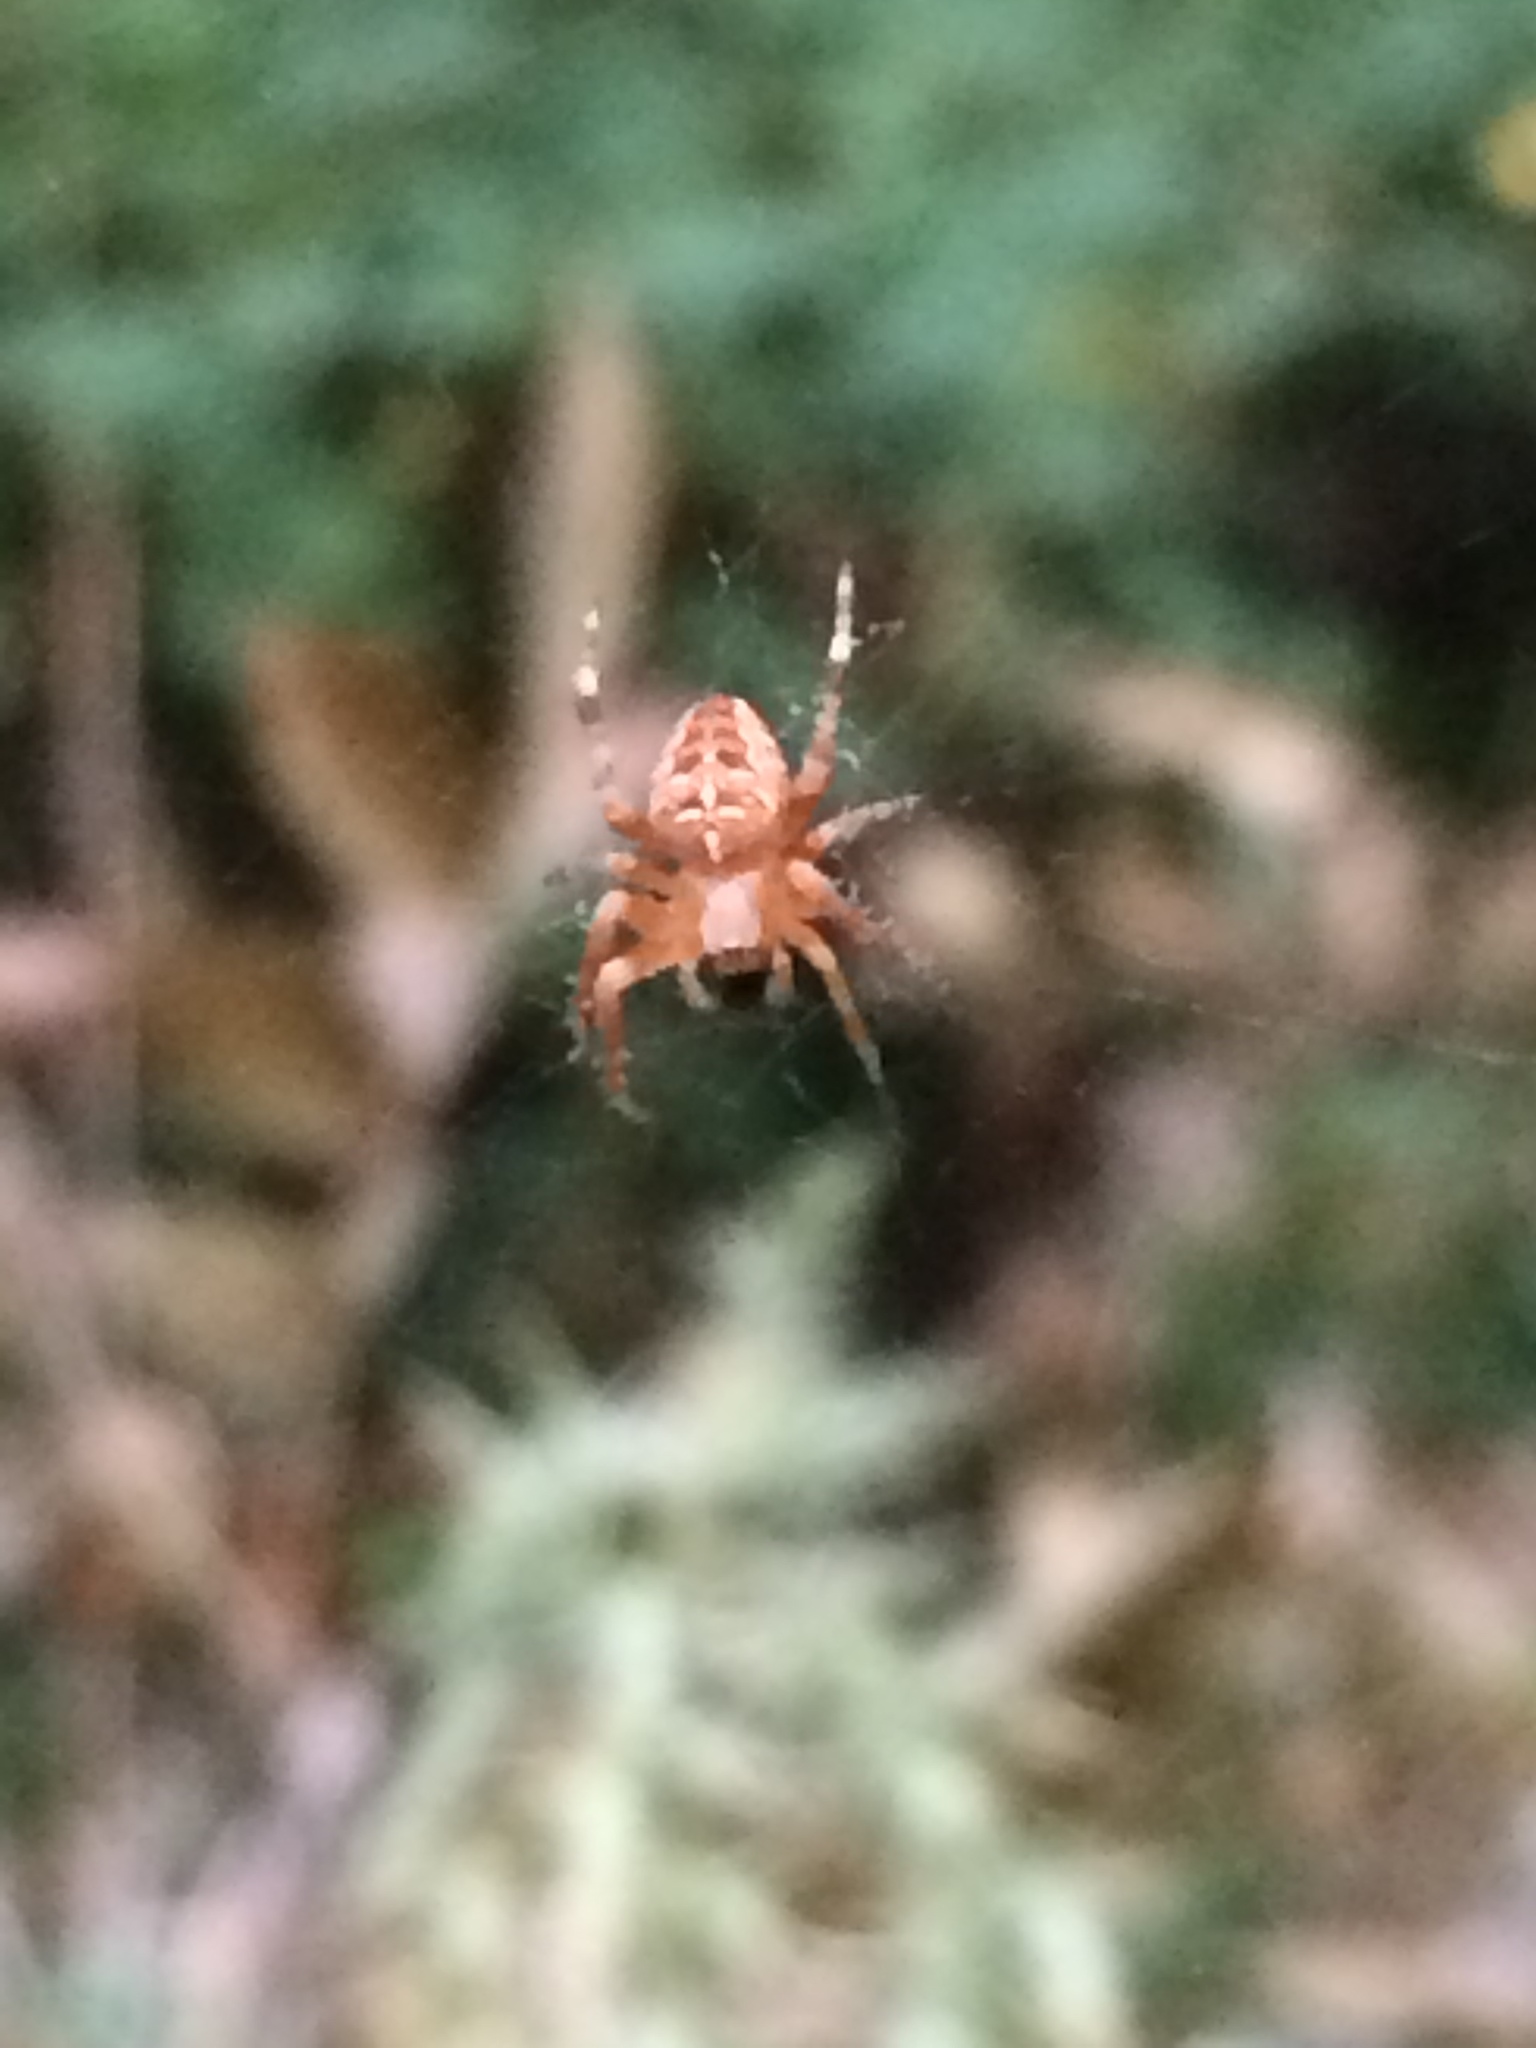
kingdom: Animalia
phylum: Arthropoda
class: Arachnida
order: Araneae
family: Araneidae
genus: Araneus
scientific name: Araneus diadematus
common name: Cross orbweaver
